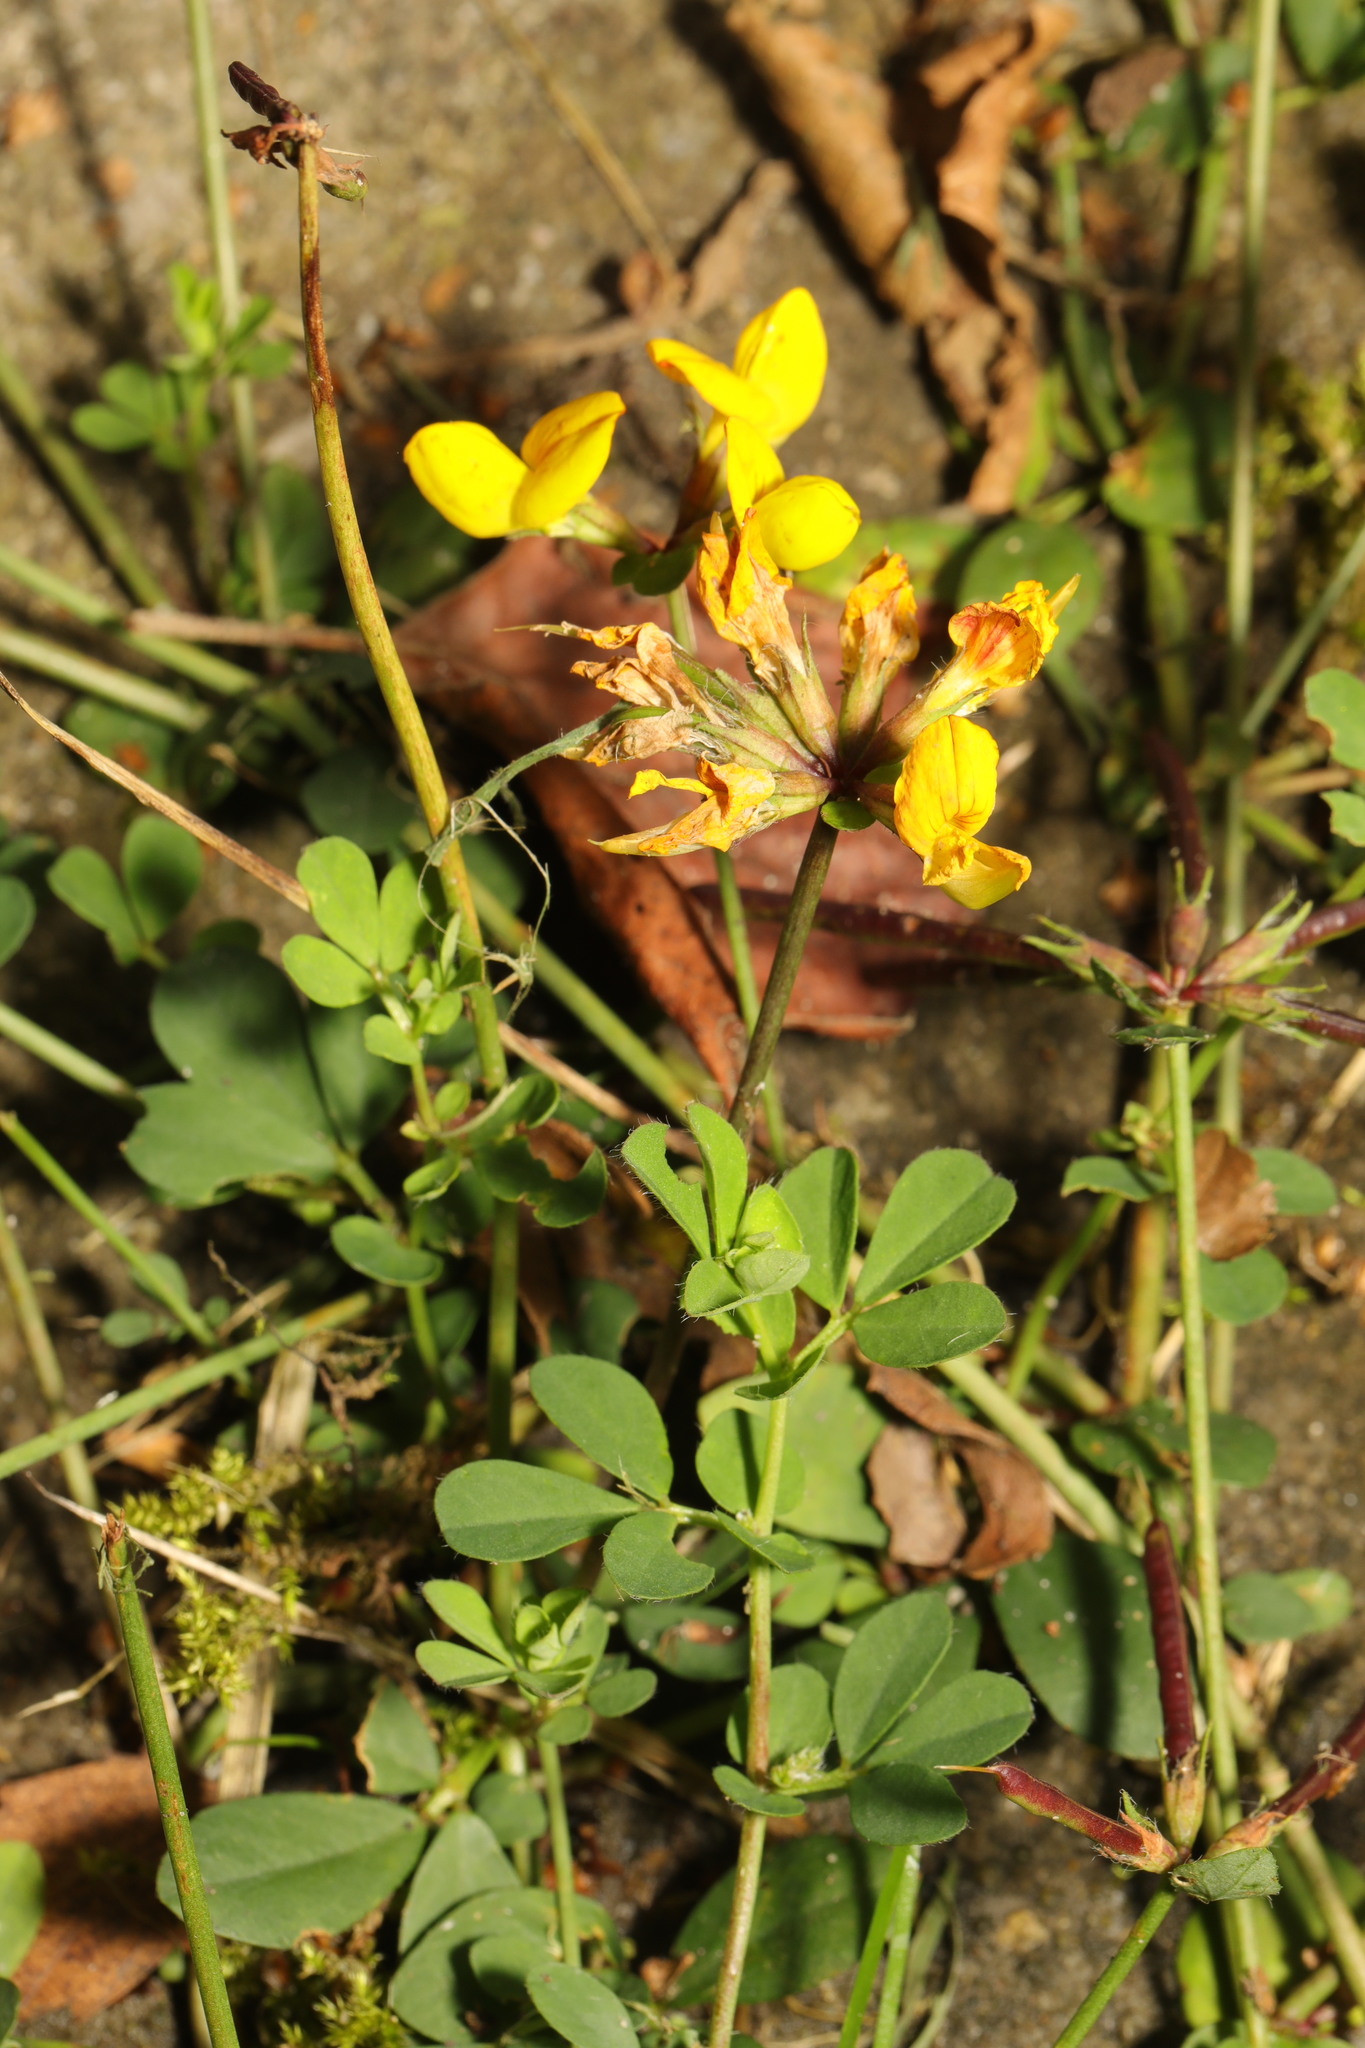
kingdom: Plantae
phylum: Tracheophyta
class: Magnoliopsida
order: Fabales
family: Fabaceae
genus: Lotus
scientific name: Lotus pedunculatus
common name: Greater birdsfoot-trefoil
